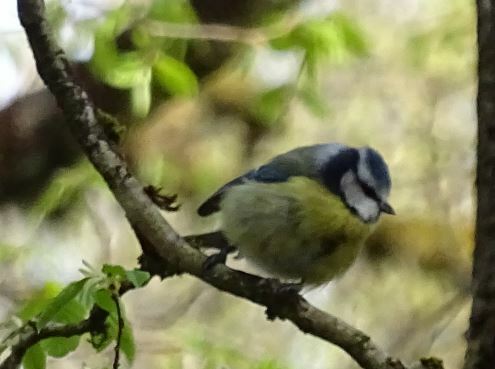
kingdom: Animalia
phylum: Chordata
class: Aves
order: Passeriformes
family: Paridae
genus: Cyanistes
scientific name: Cyanistes caeruleus
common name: Eurasian blue tit
